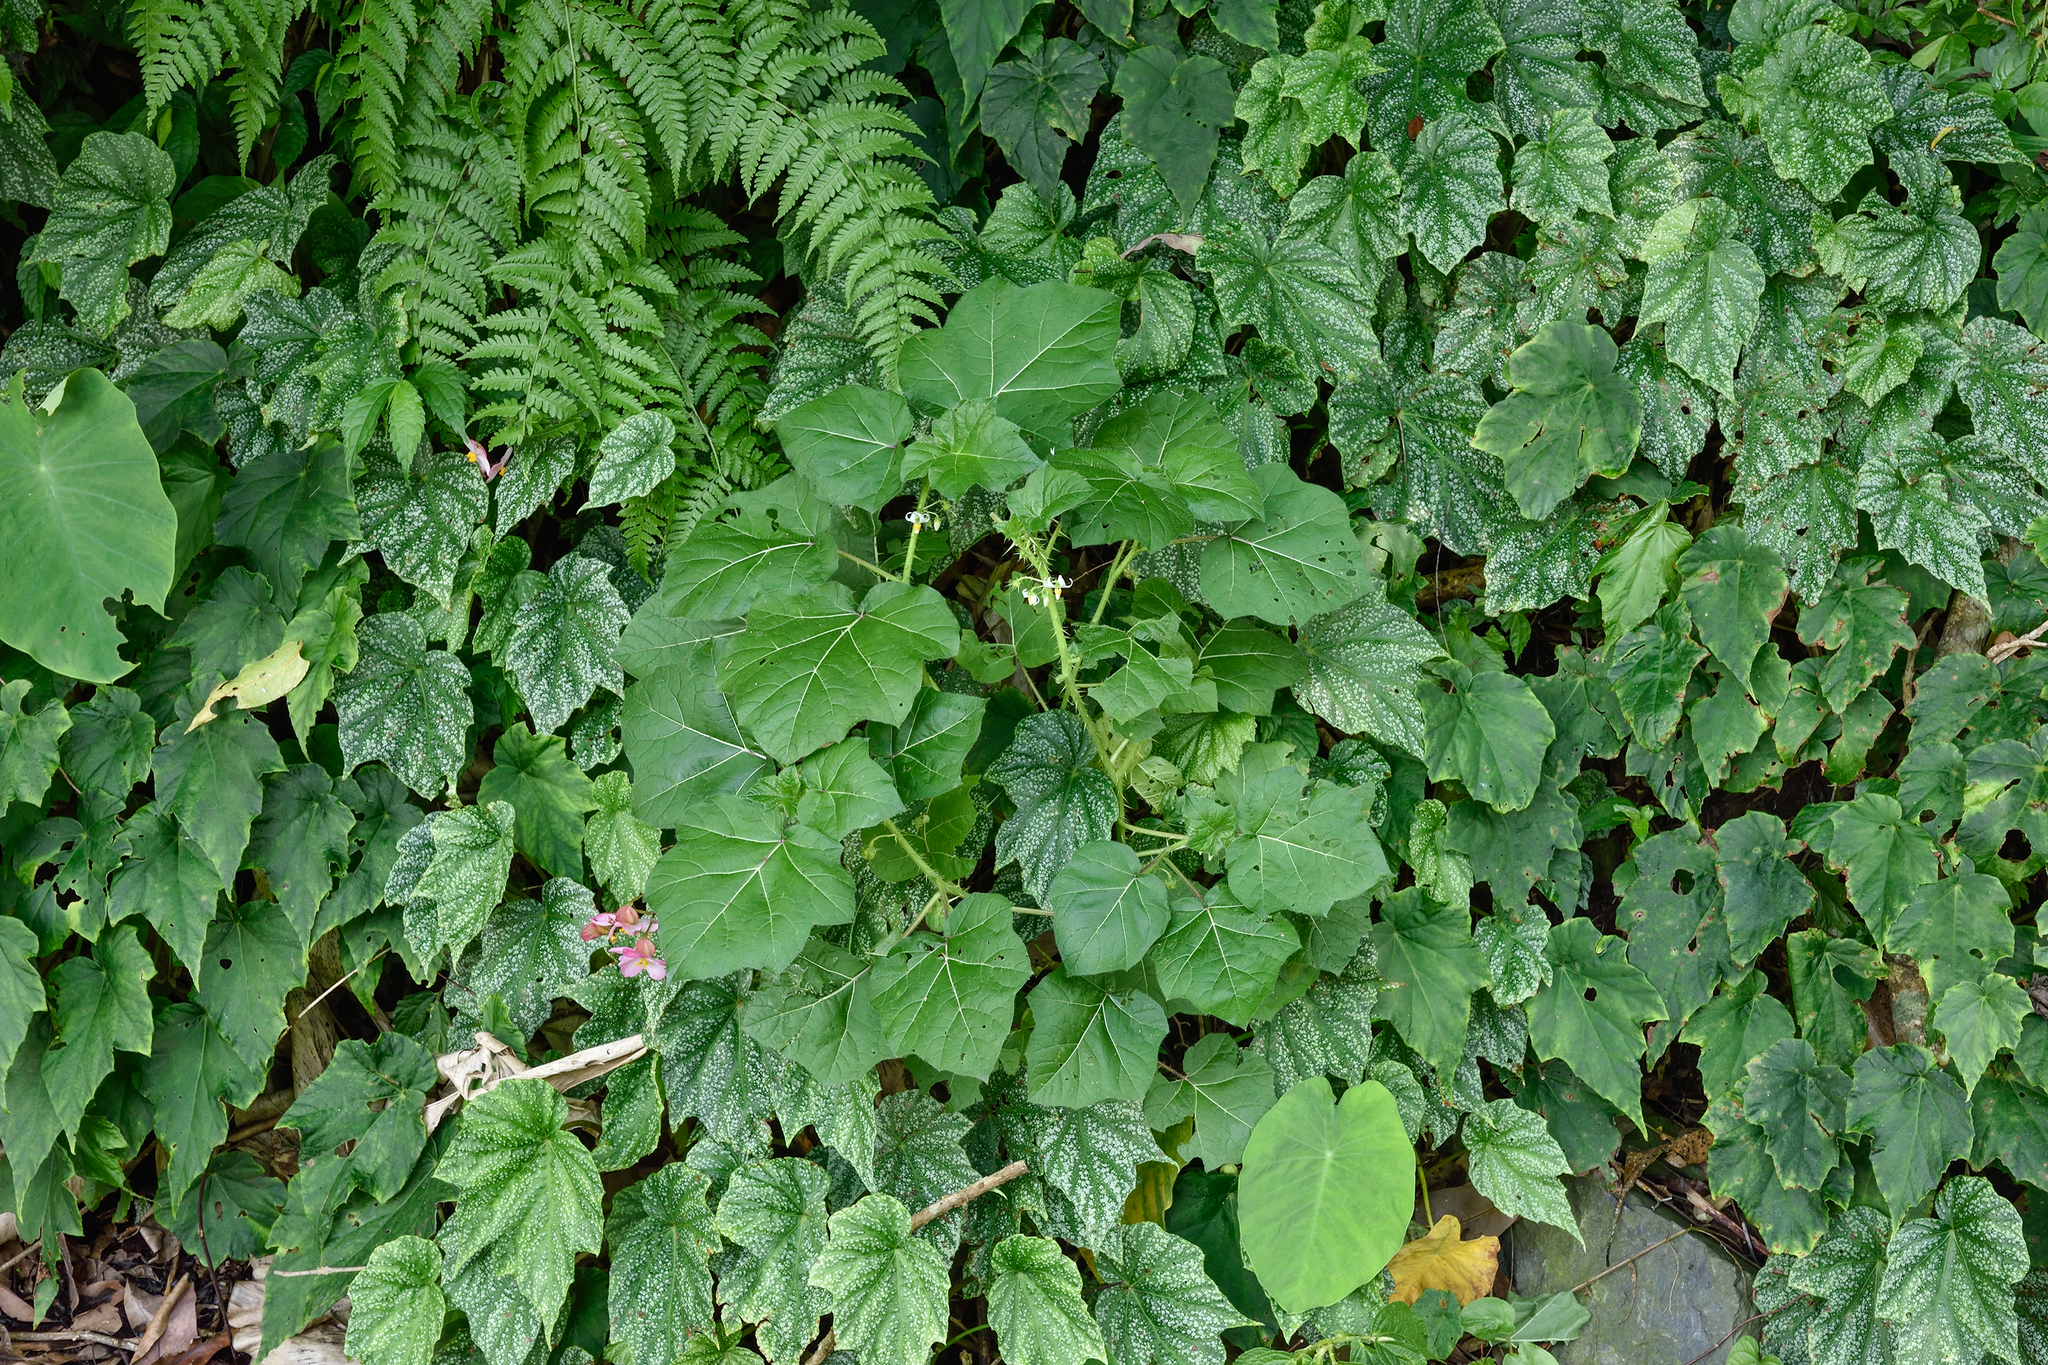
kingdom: Plantae
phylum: Tracheophyta
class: Magnoliopsida
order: Solanales
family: Solanaceae
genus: Solanum
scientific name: Solanum capsicoides
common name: Cockroach berry
